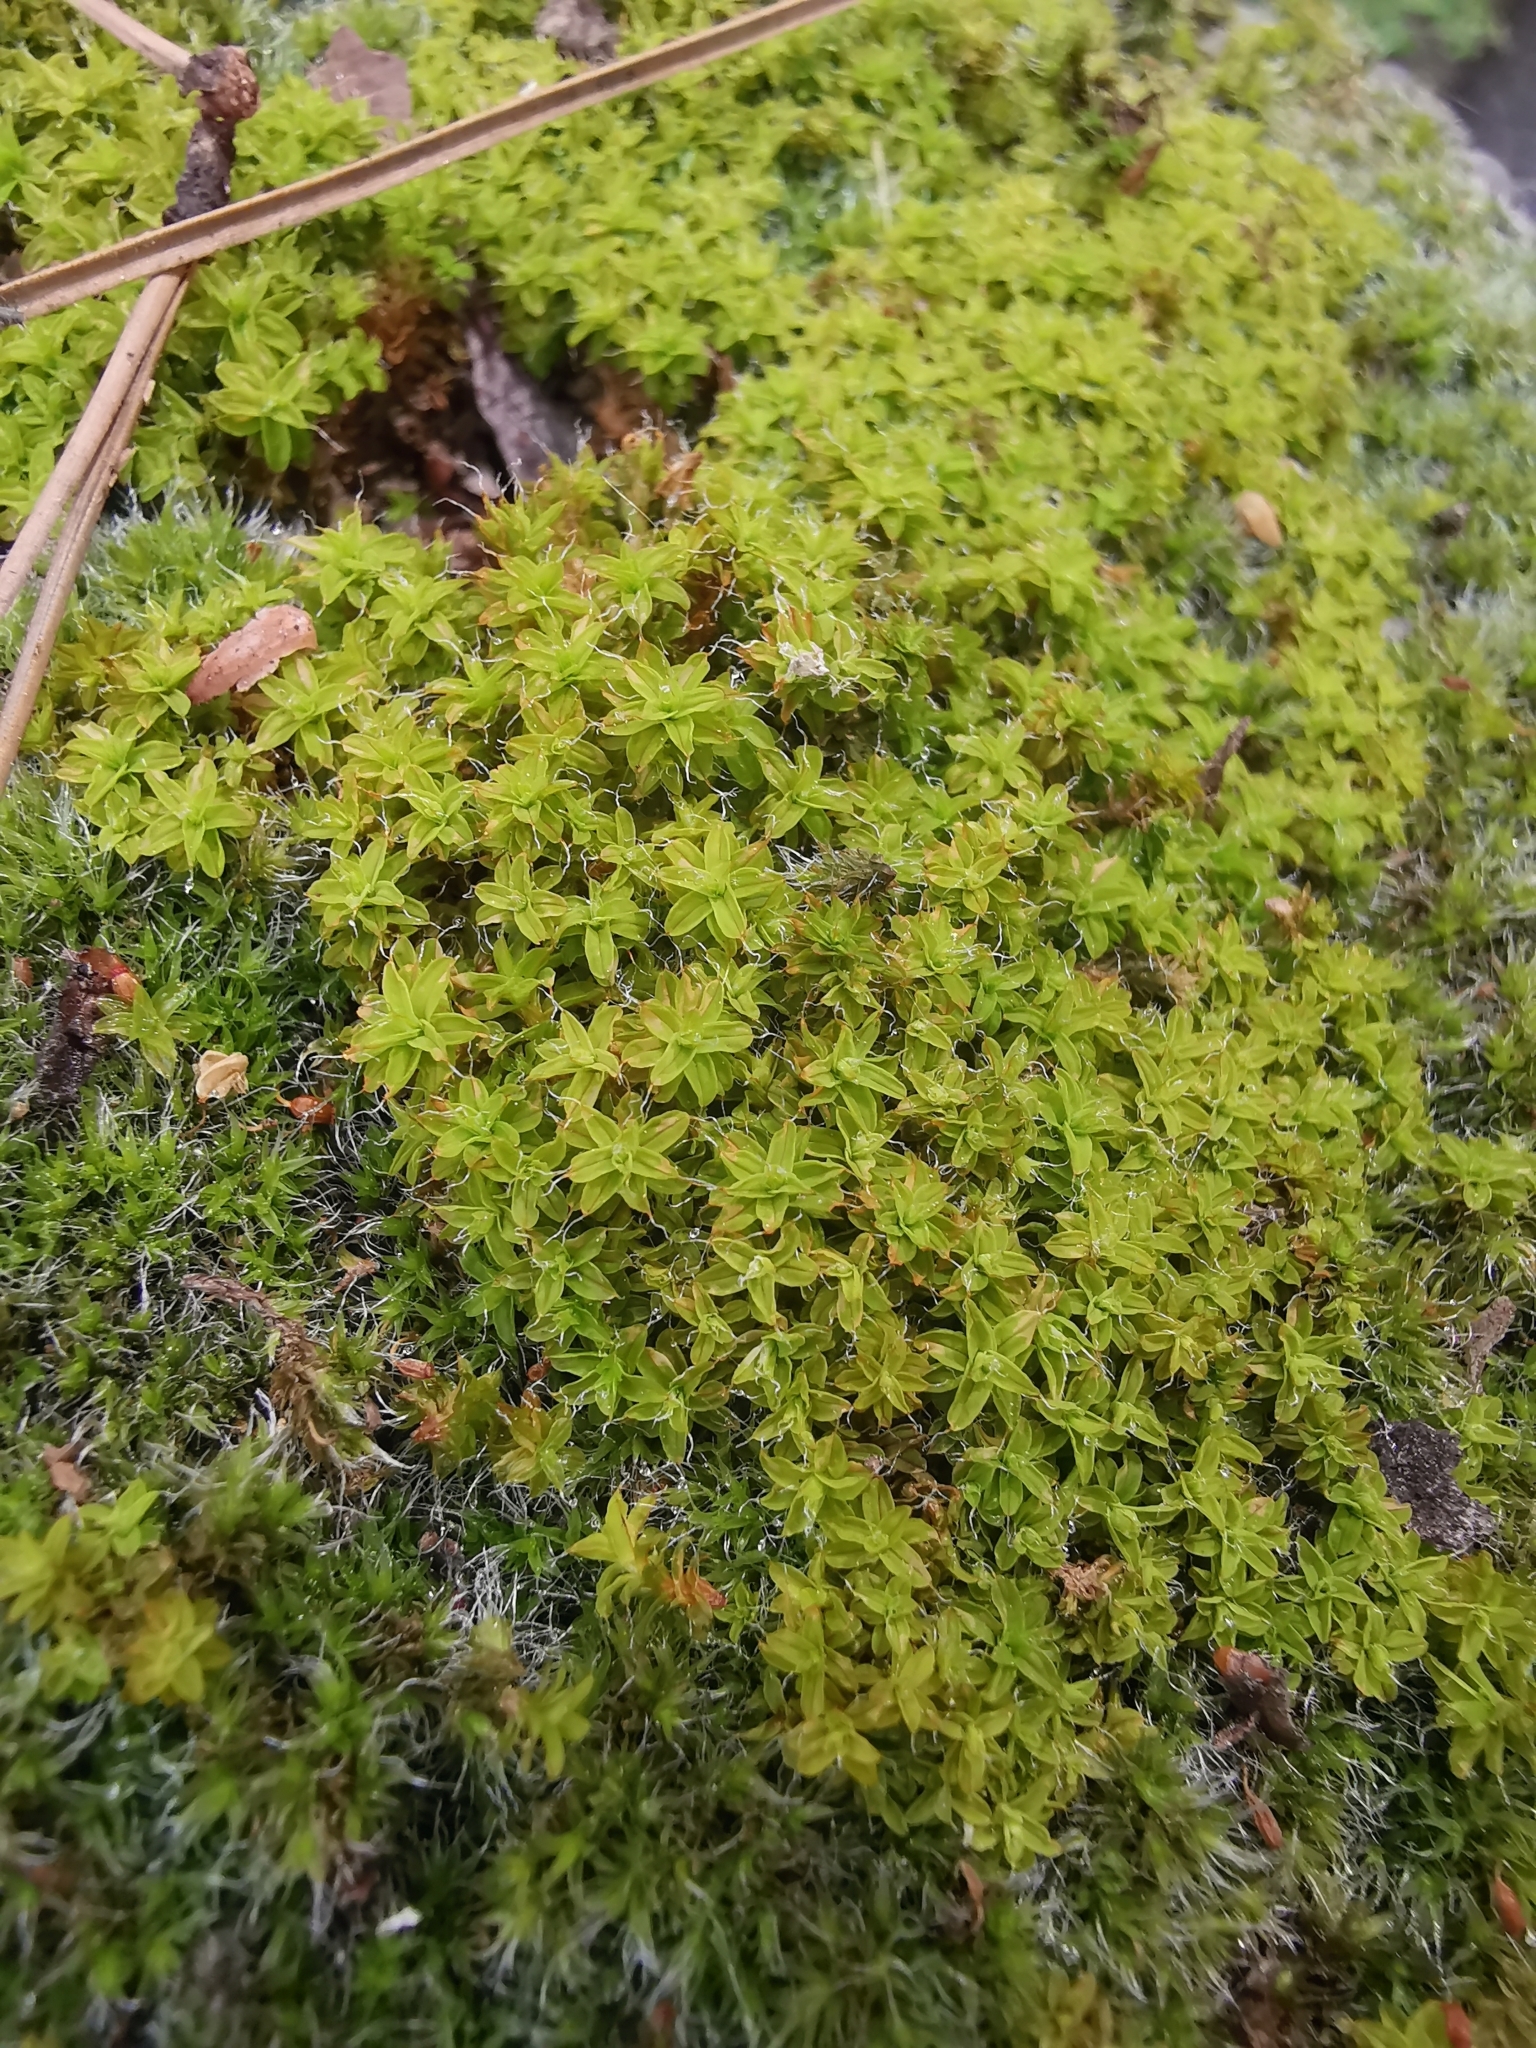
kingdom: Plantae
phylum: Bryophyta
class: Bryopsida
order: Pottiales
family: Pottiaceae
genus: Syntrichia
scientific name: Syntrichia ruralis
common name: Sidewalk screw moss
